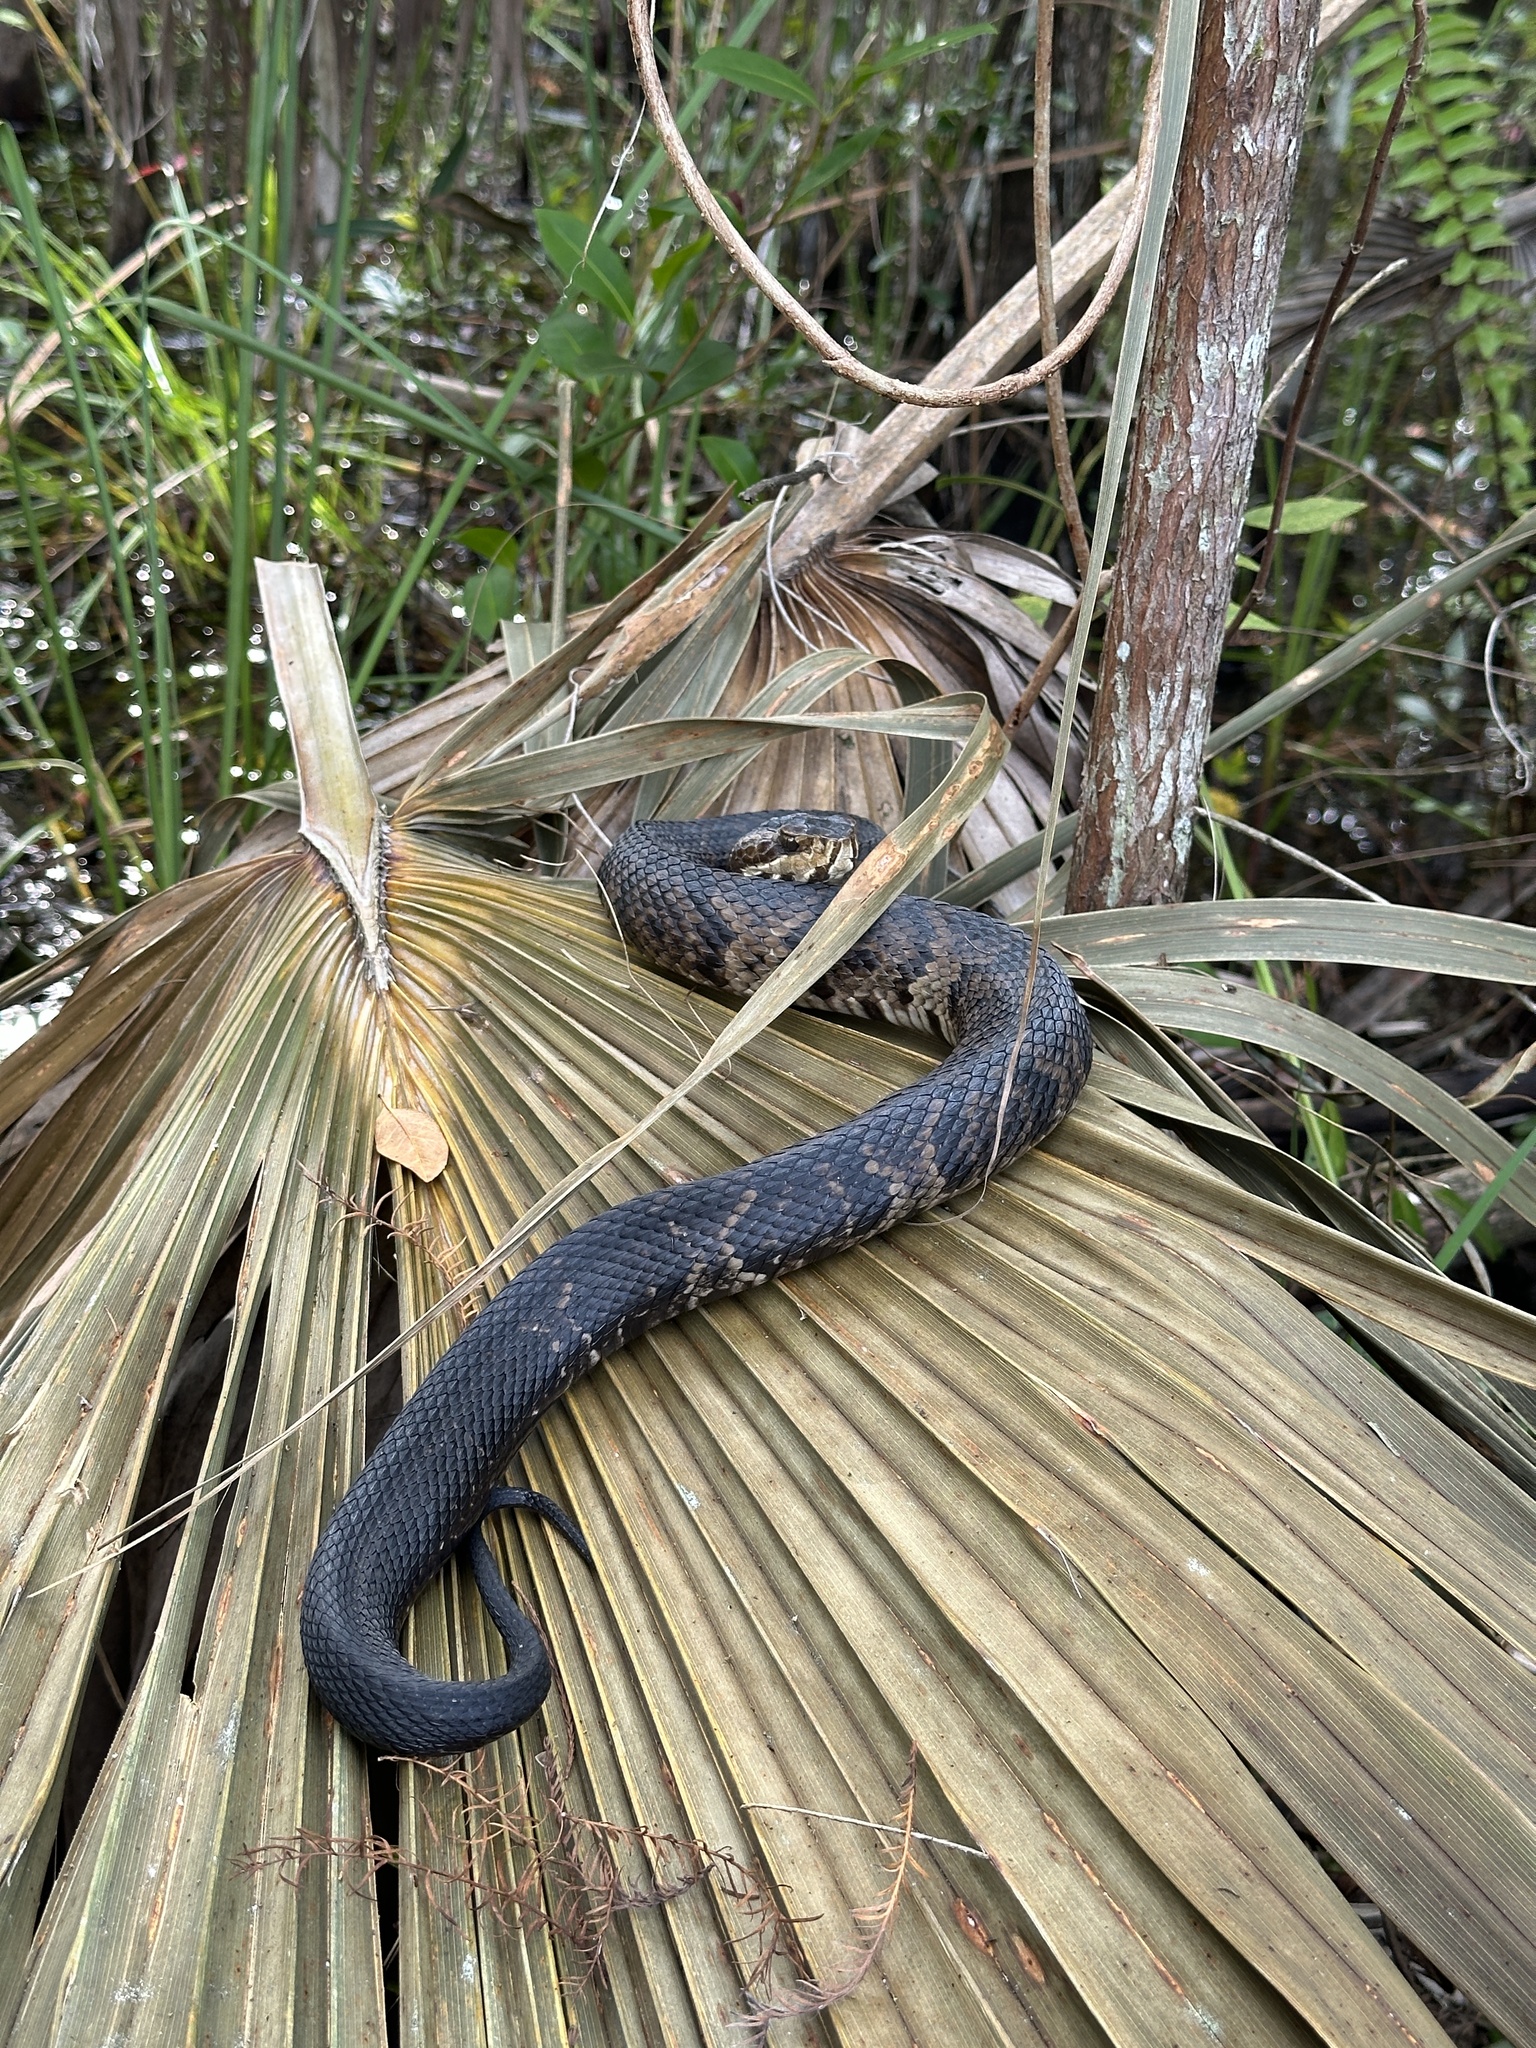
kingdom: Animalia
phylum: Chordata
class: Squamata
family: Viperidae
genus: Agkistrodon
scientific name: Agkistrodon conanti
